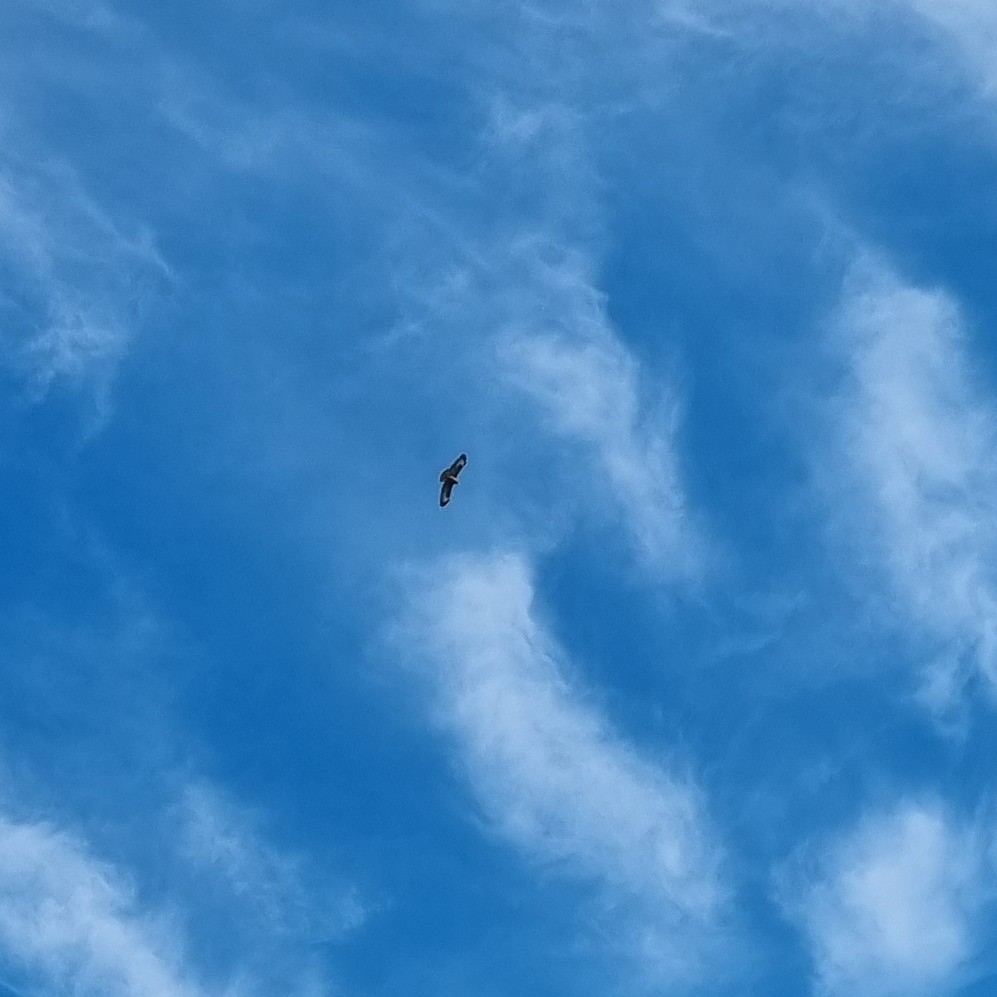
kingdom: Animalia
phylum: Chordata
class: Aves
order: Accipitriformes
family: Accipitridae
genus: Buteo
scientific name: Buteo buteo
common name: Common buzzard
